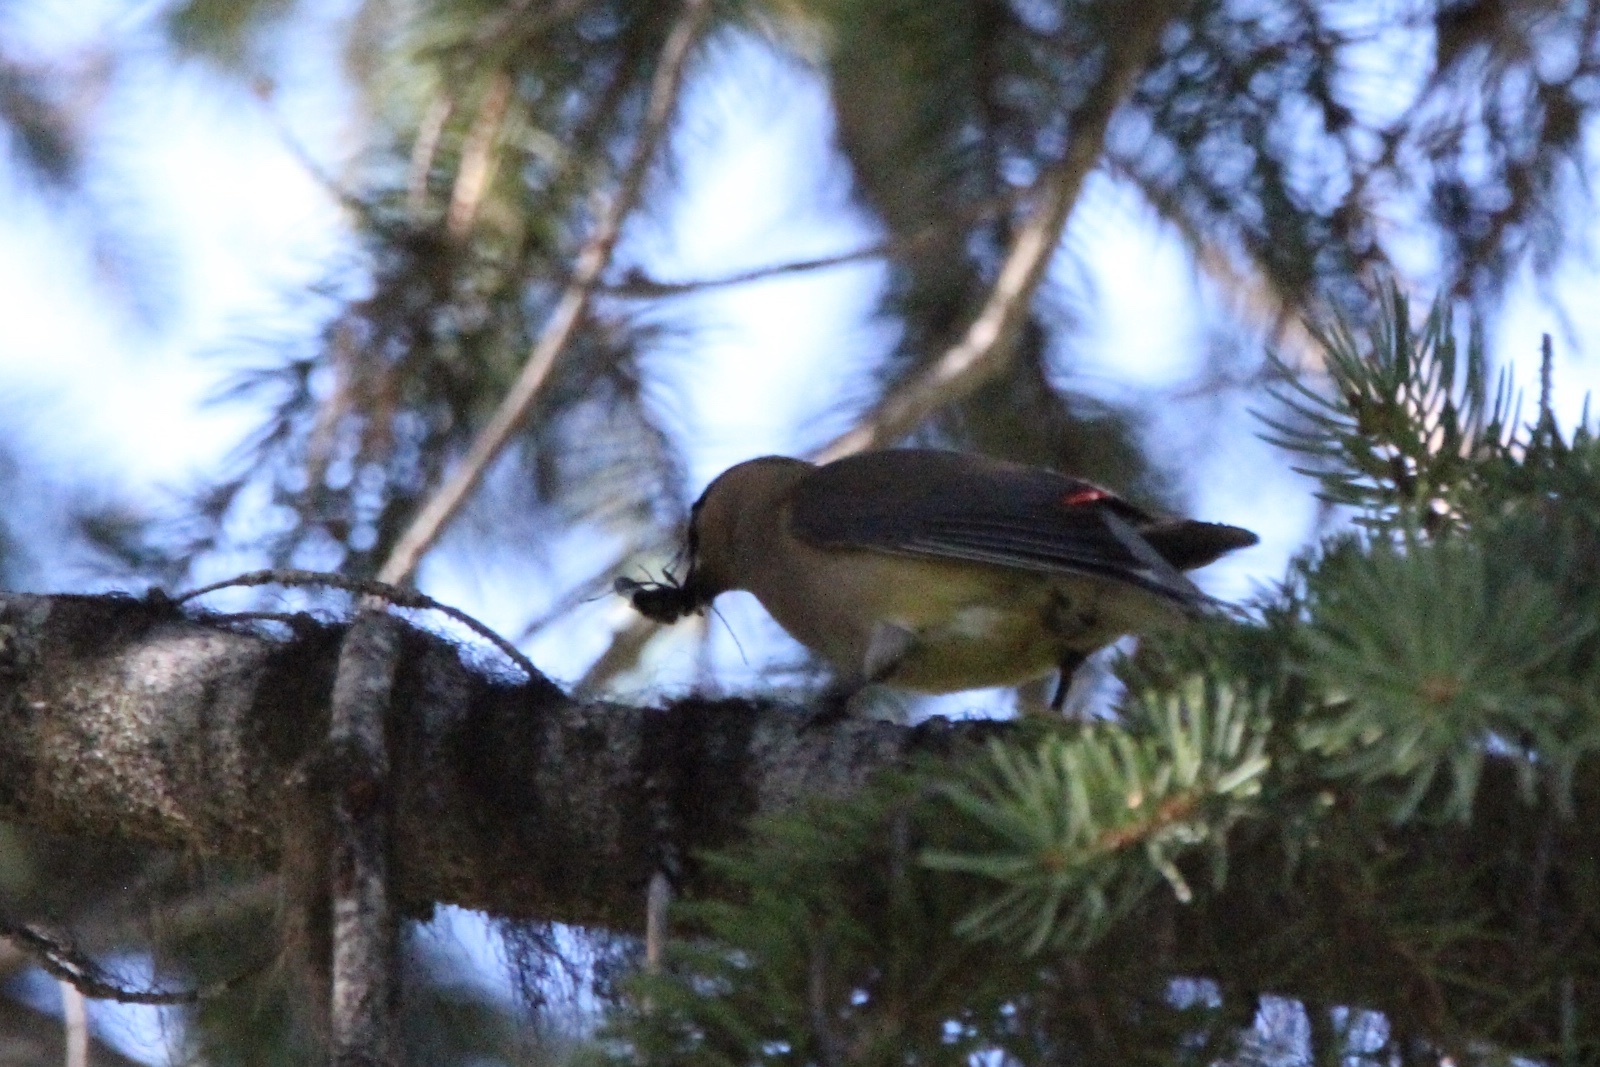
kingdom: Animalia
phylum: Chordata
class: Aves
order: Passeriformes
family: Bombycillidae
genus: Bombycilla
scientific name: Bombycilla cedrorum
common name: Cedar waxwing
